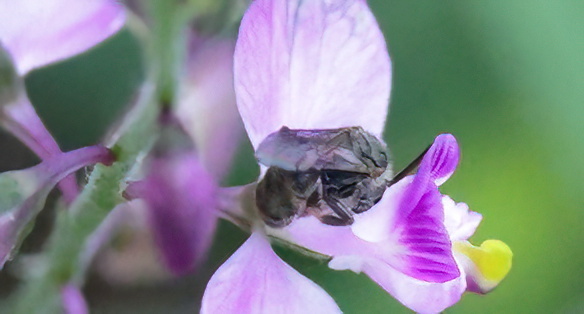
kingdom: Animalia
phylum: Arthropoda
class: Insecta
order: Hymenoptera
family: Halictidae
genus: Dialictus
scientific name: Dialictus
